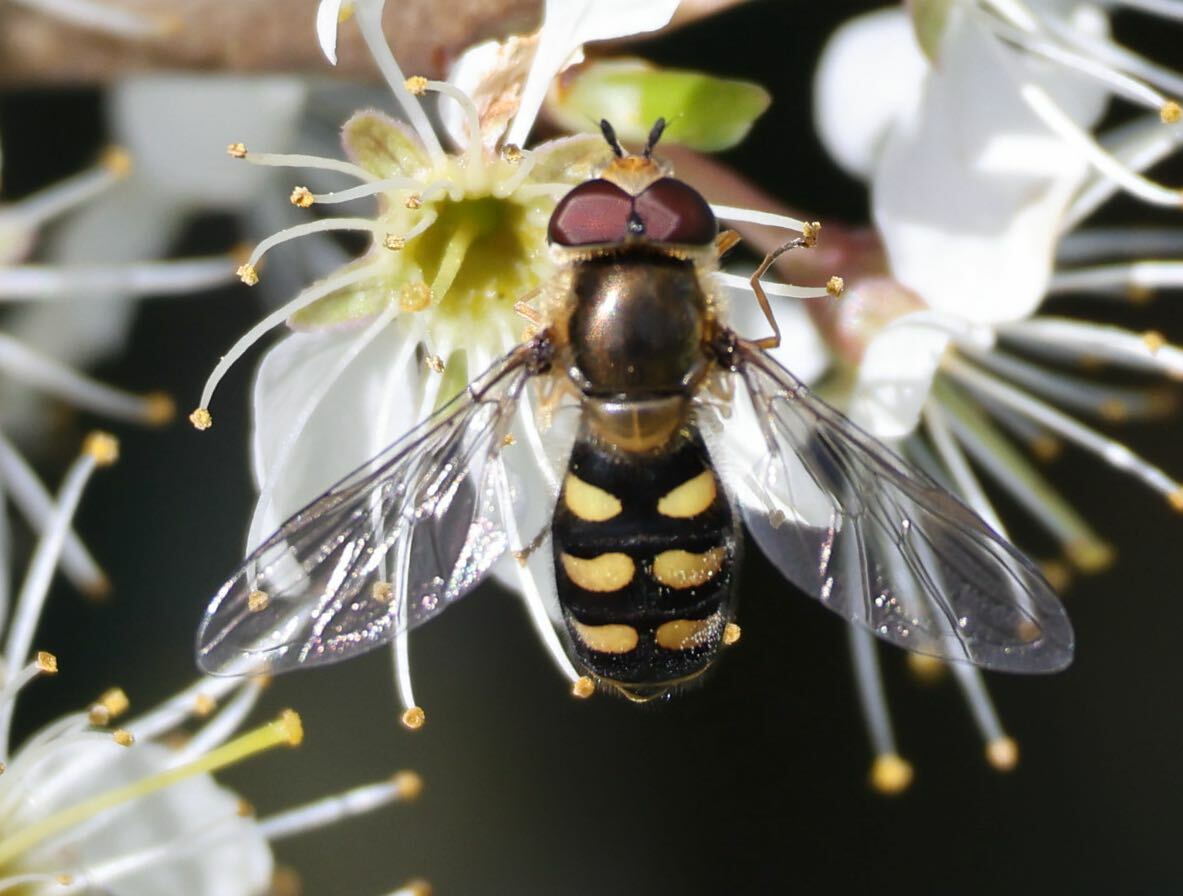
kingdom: Animalia
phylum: Arthropoda
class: Insecta
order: Diptera
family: Syrphidae
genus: Eupeodes
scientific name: Eupeodes
